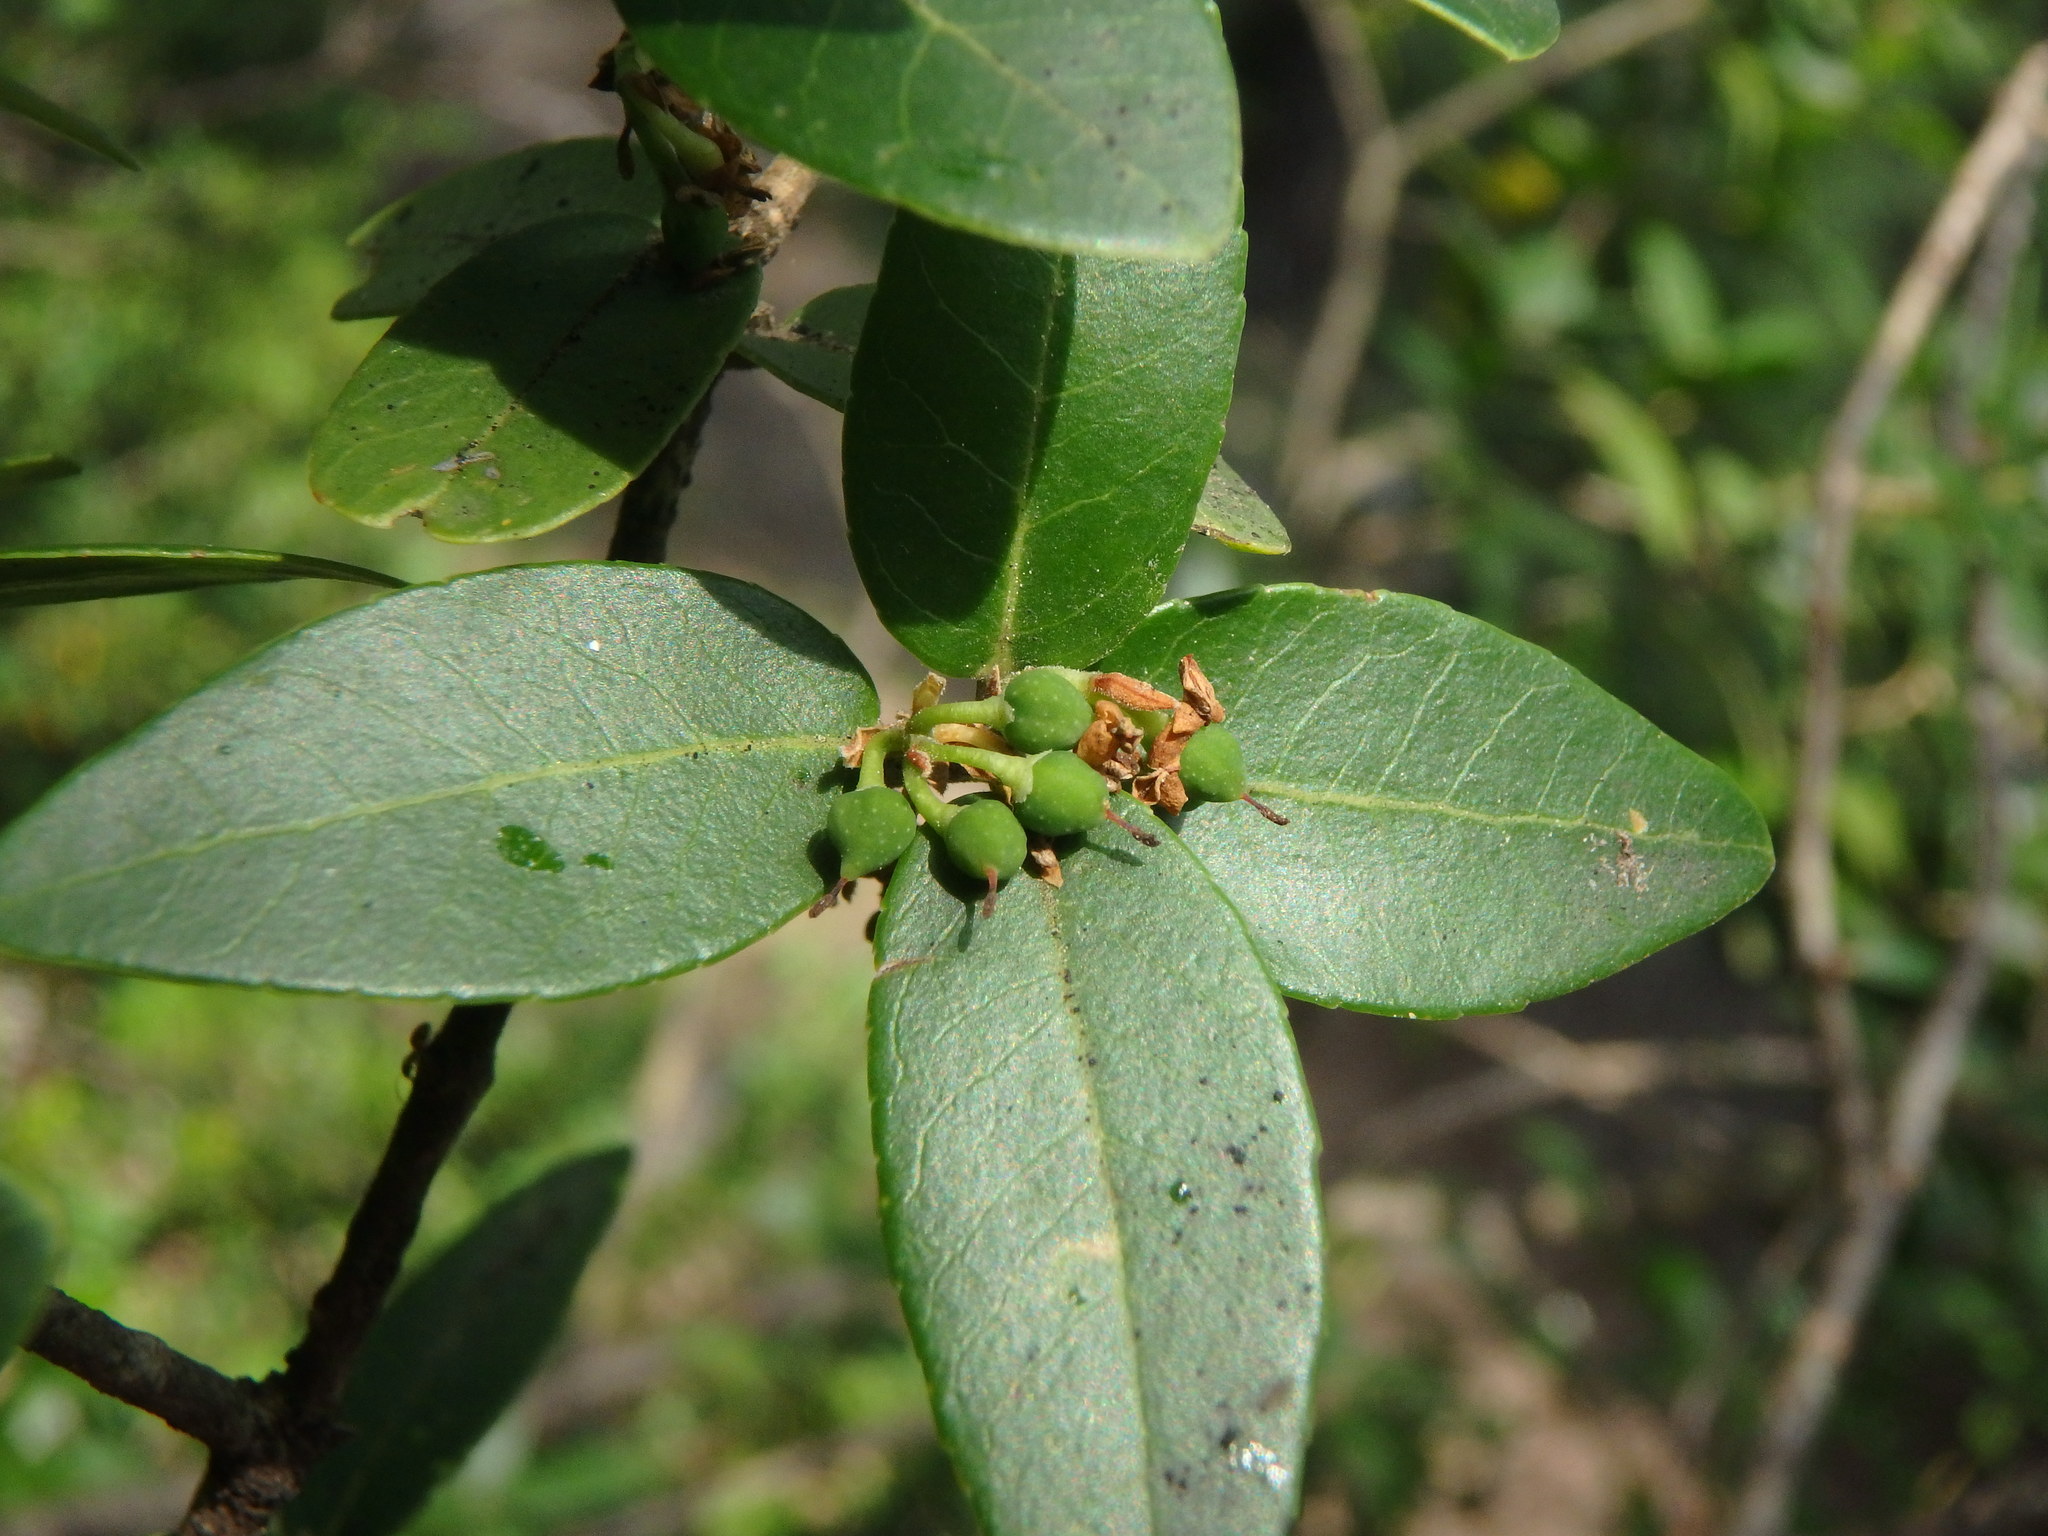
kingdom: Plantae
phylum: Tracheophyta
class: Magnoliopsida
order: Lamiales
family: Oleaceae
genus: Phillyrea
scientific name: Phillyrea latifolia
